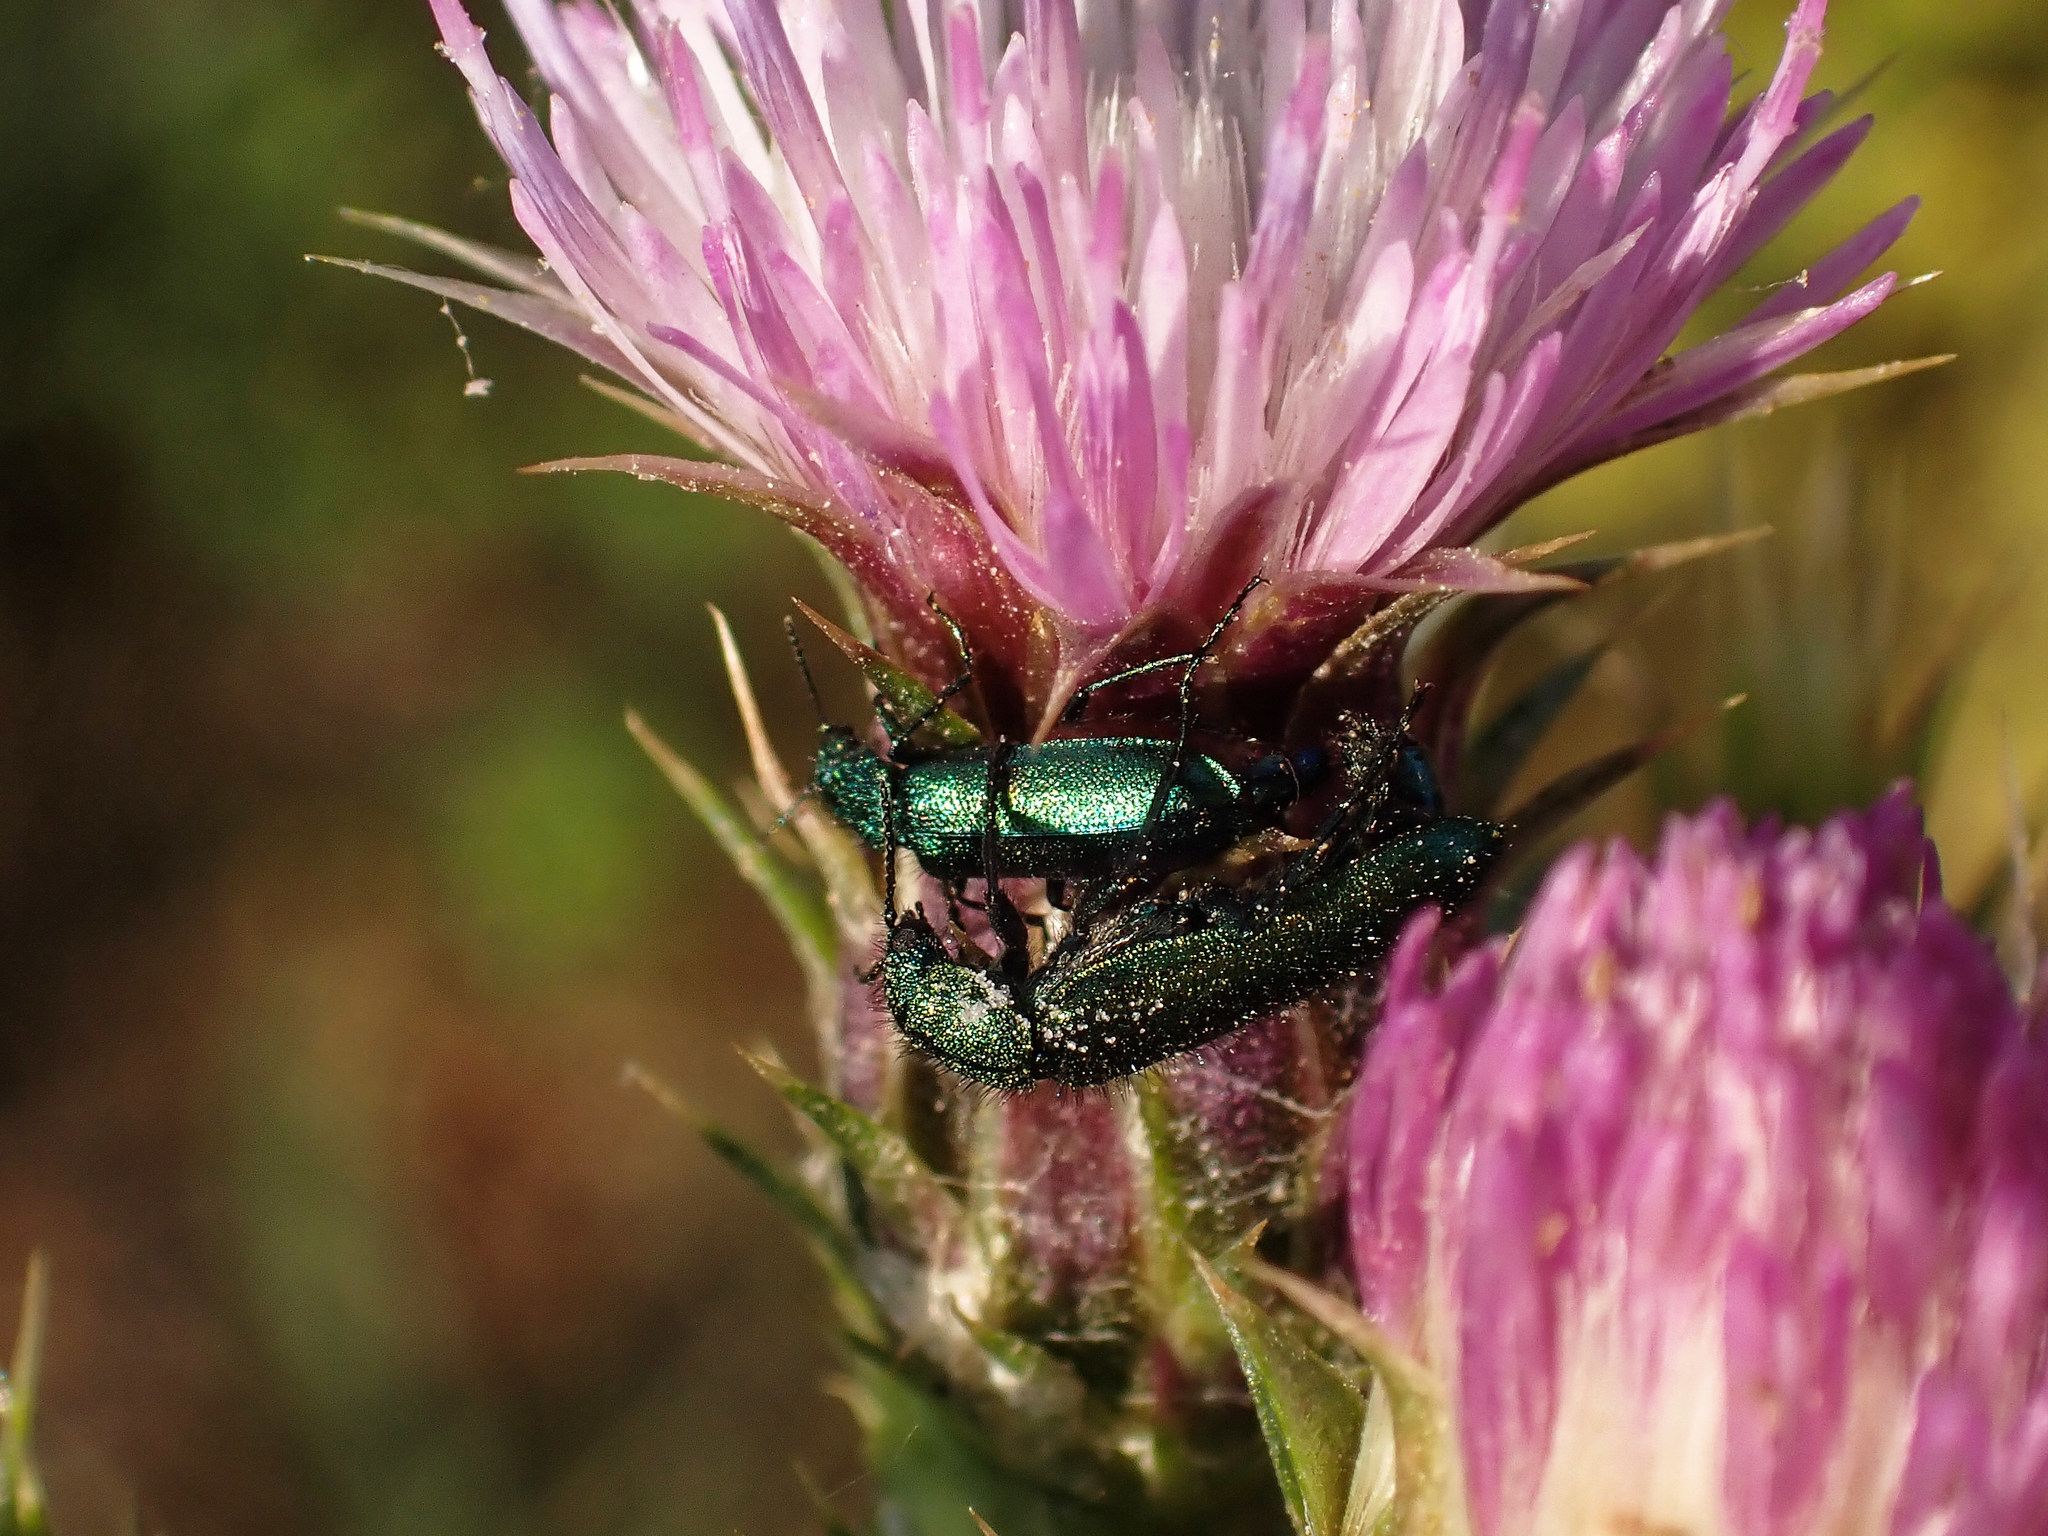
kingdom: Animalia
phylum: Arthropoda
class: Insecta
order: Coleoptera
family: Dasytidae
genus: Psilothrix
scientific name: Psilothrix viridicoerulea
